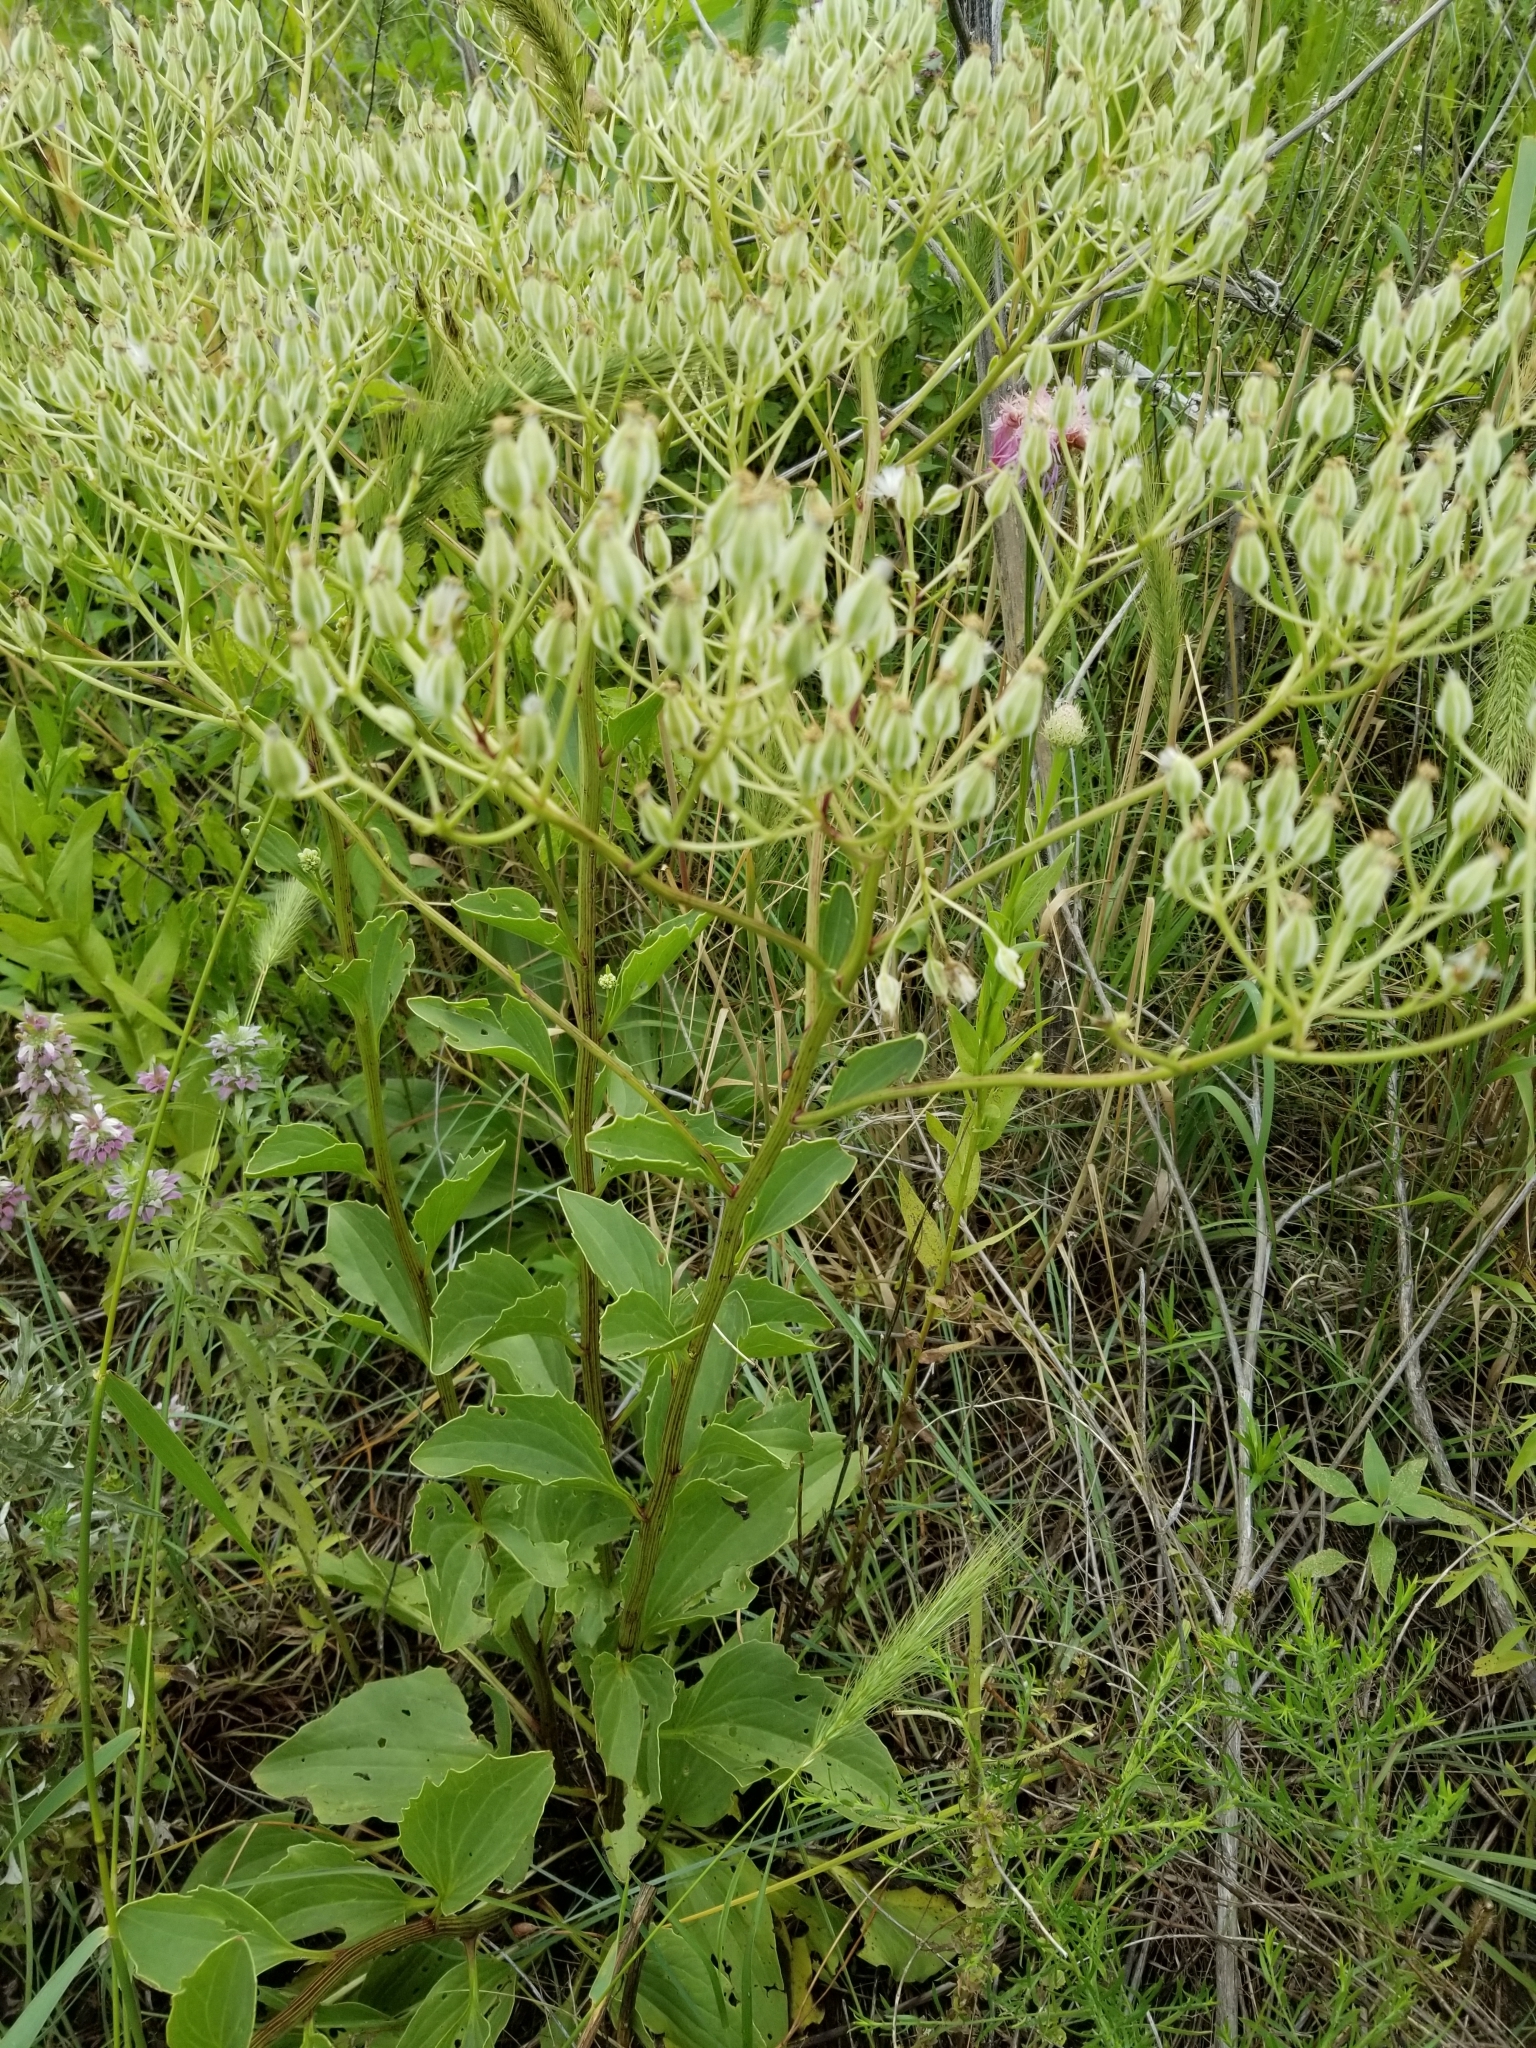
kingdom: Plantae
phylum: Tracheophyta
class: Magnoliopsida
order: Asterales
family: Asteraceae
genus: Arnoglossum
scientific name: Arnoglossum plantagineum
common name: Groove-stemmed indian-plantain
